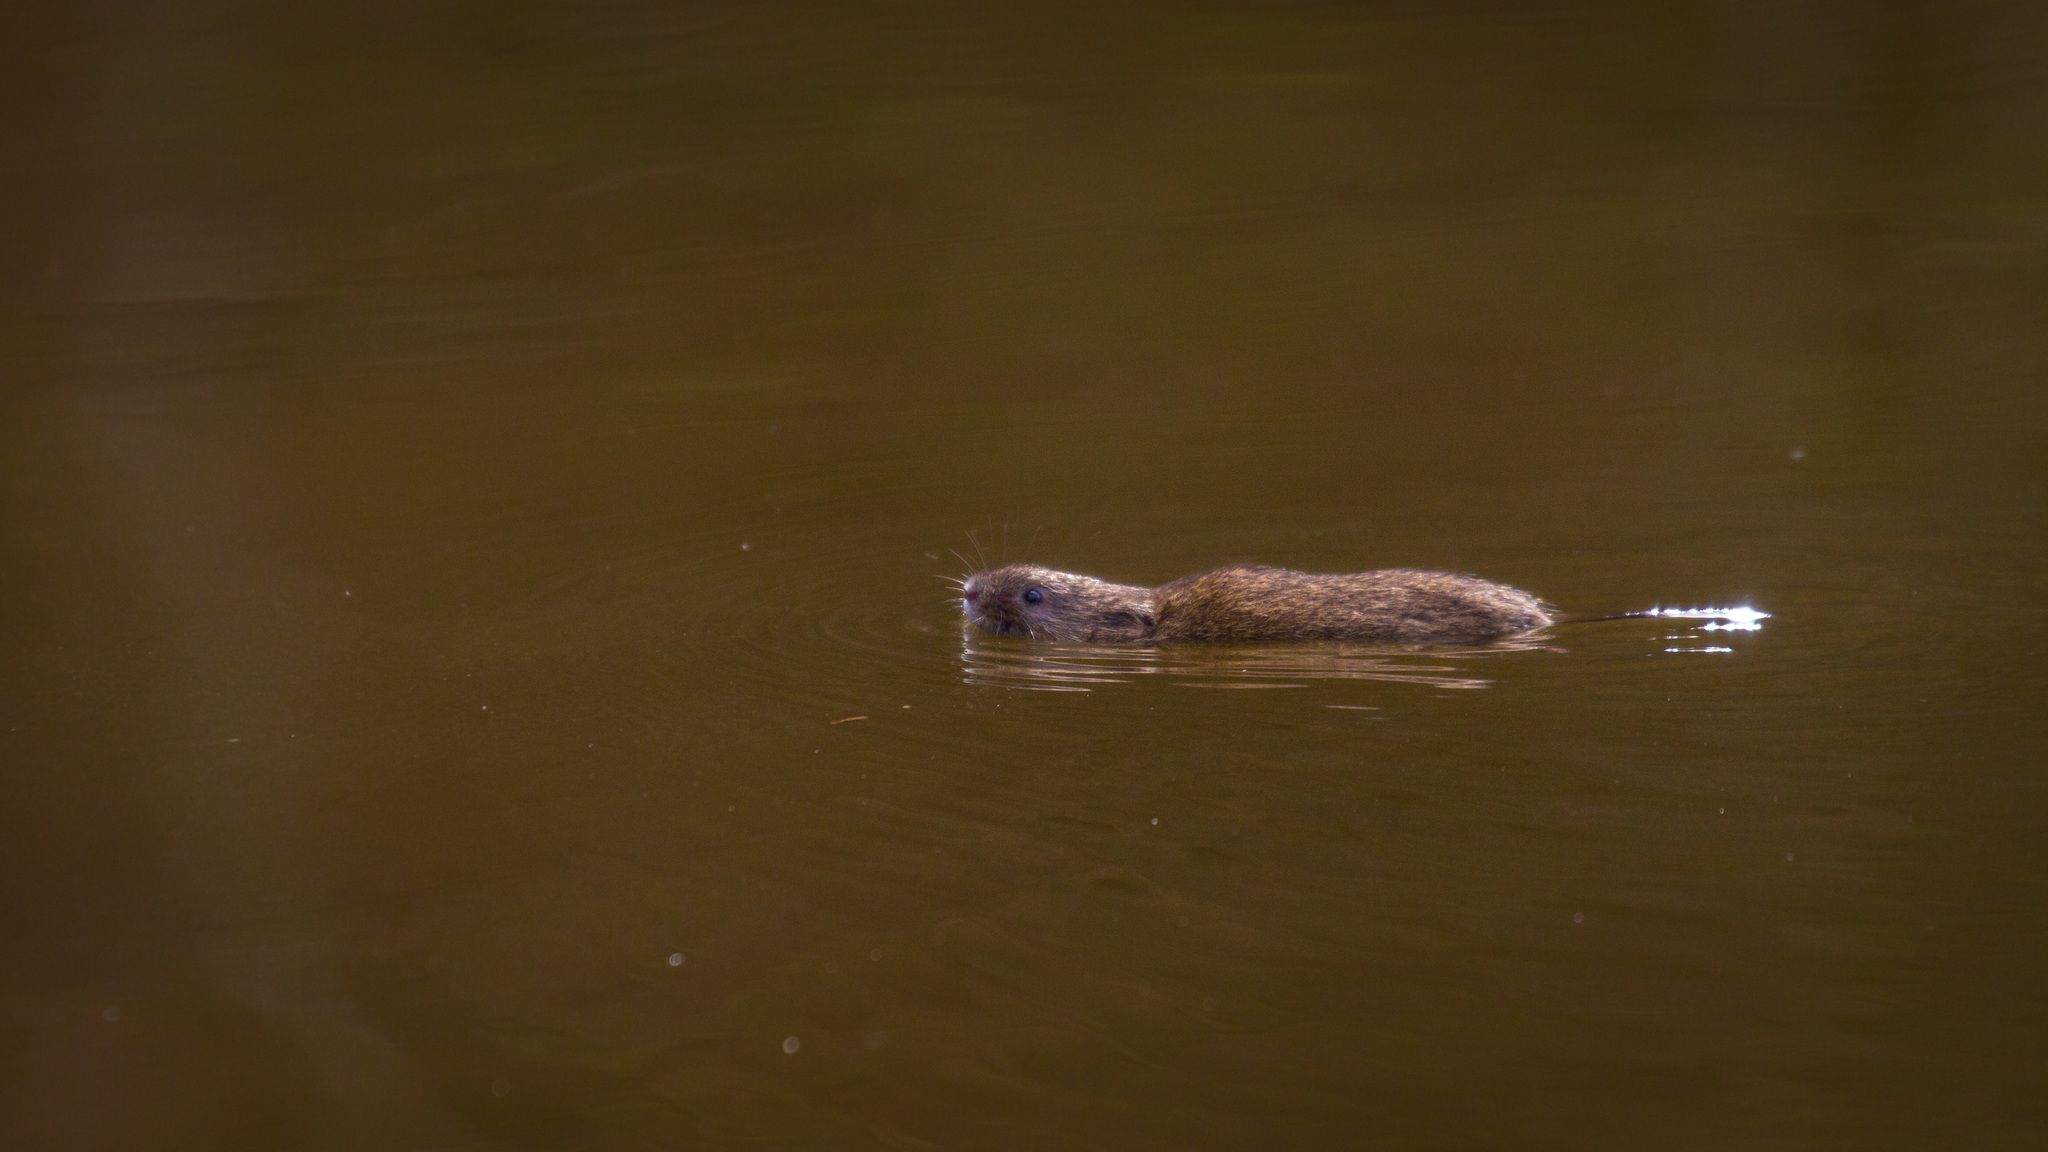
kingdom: Animalia
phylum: Chordata
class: Mammalia
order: Rodentia
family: Cricetidae
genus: Arvicola
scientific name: Arvicola amphibius
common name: European water vole
